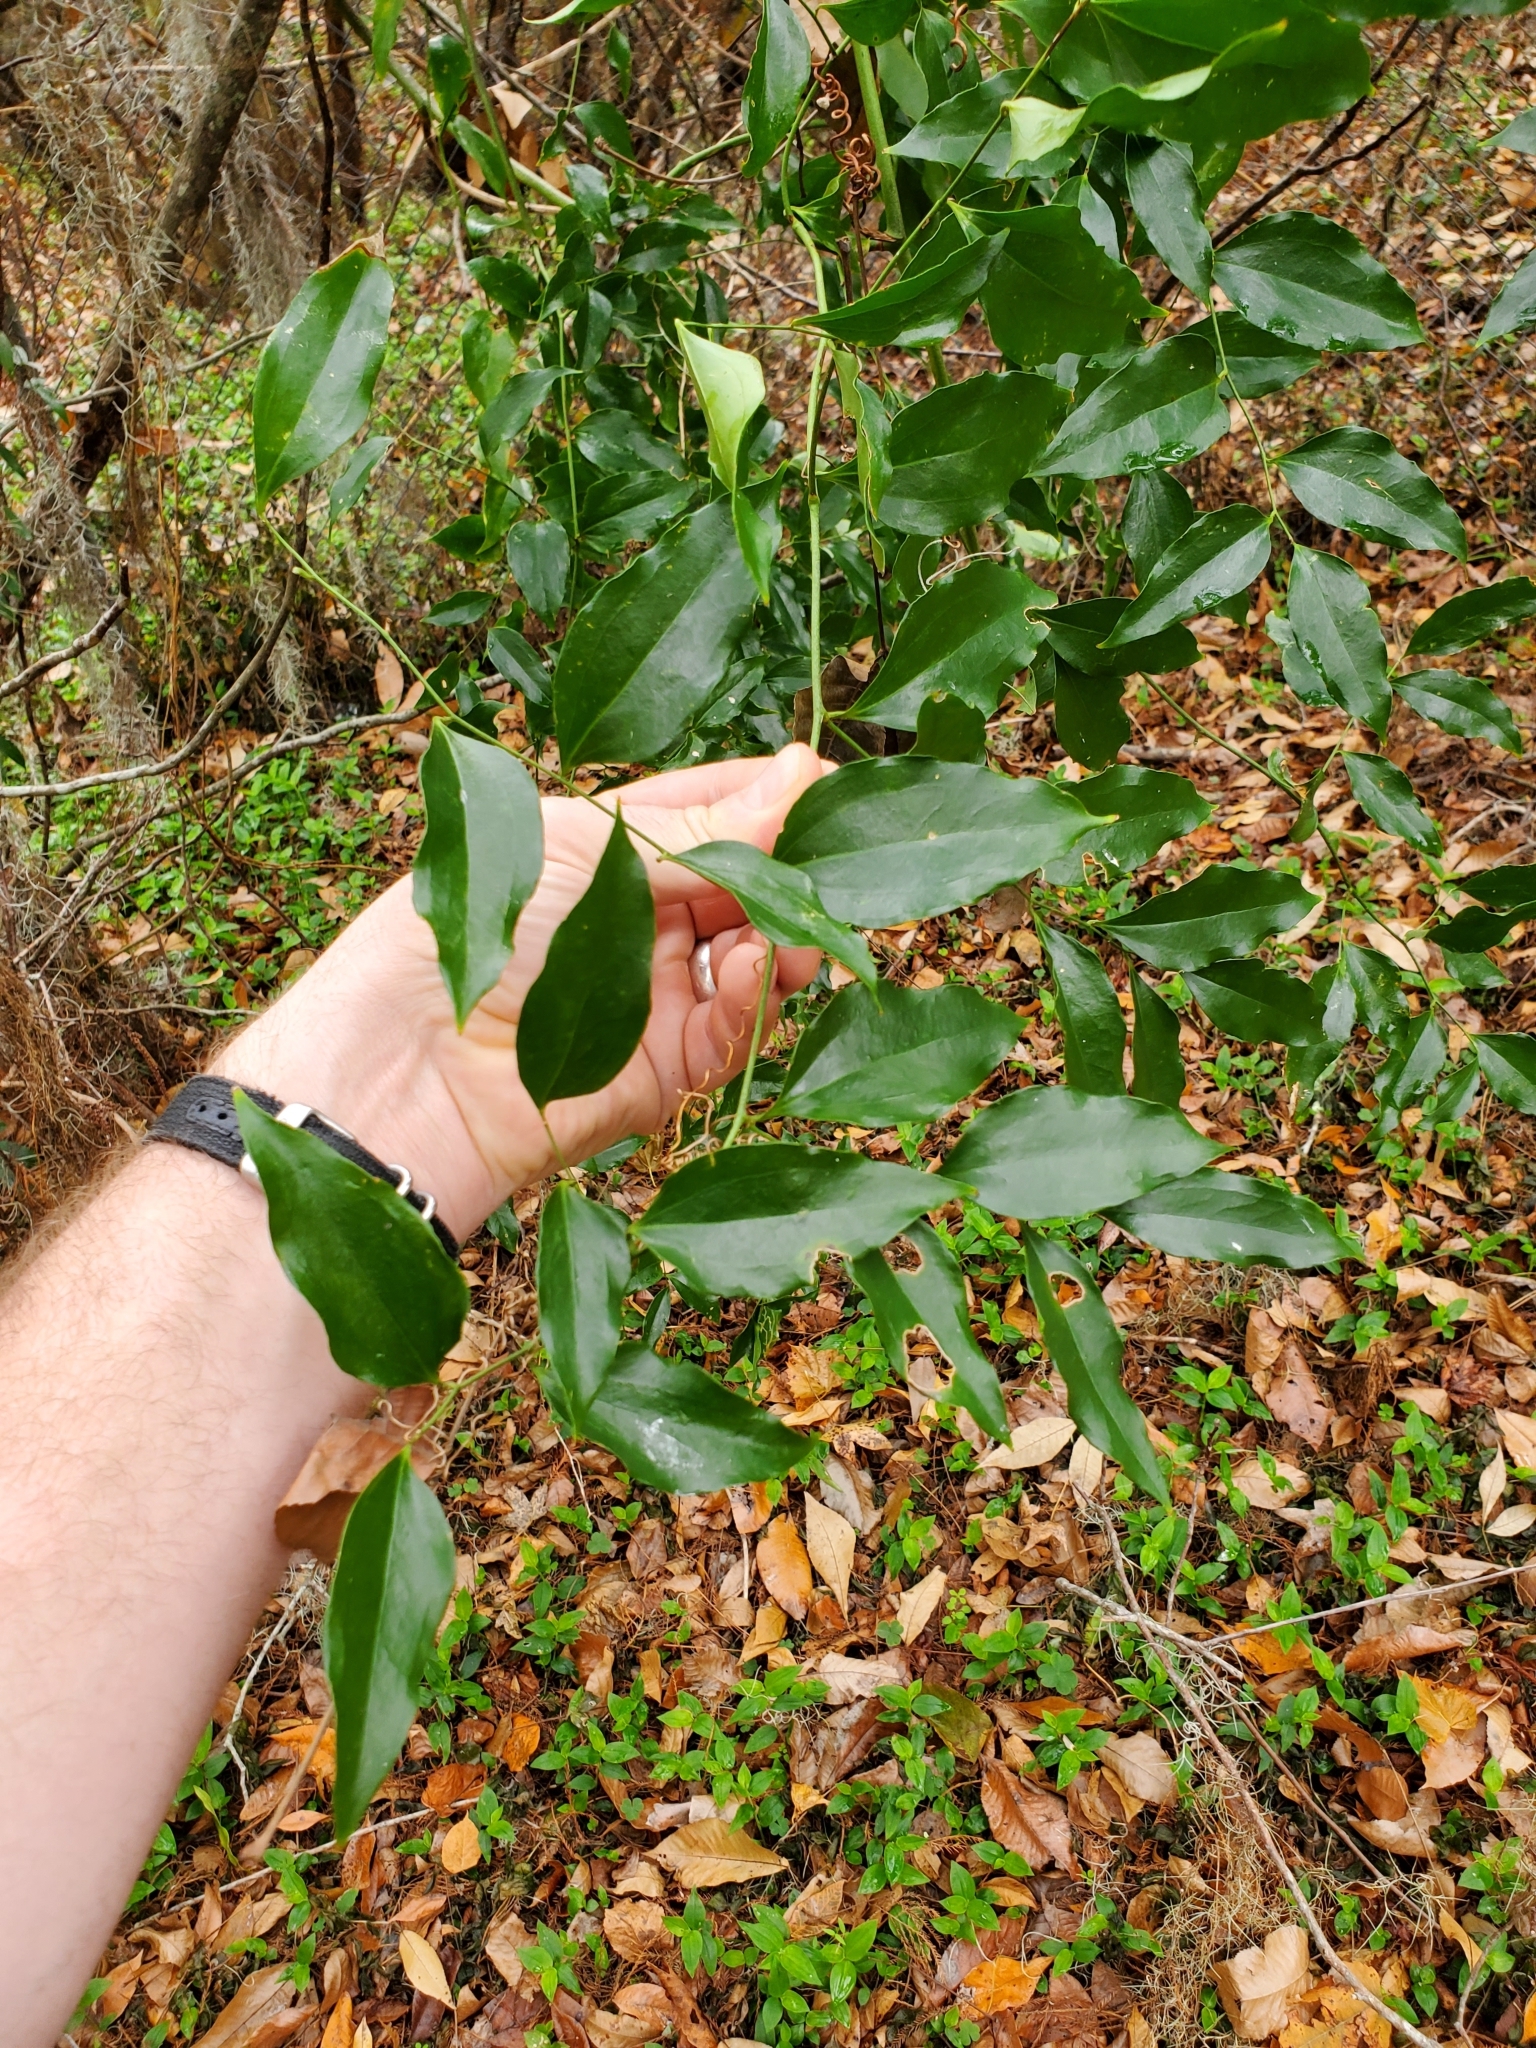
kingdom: Plantae
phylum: Tracheophyta
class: Liliopsida
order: Liliales
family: Smilacaceae
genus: Smilax
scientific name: Smilax maritima
